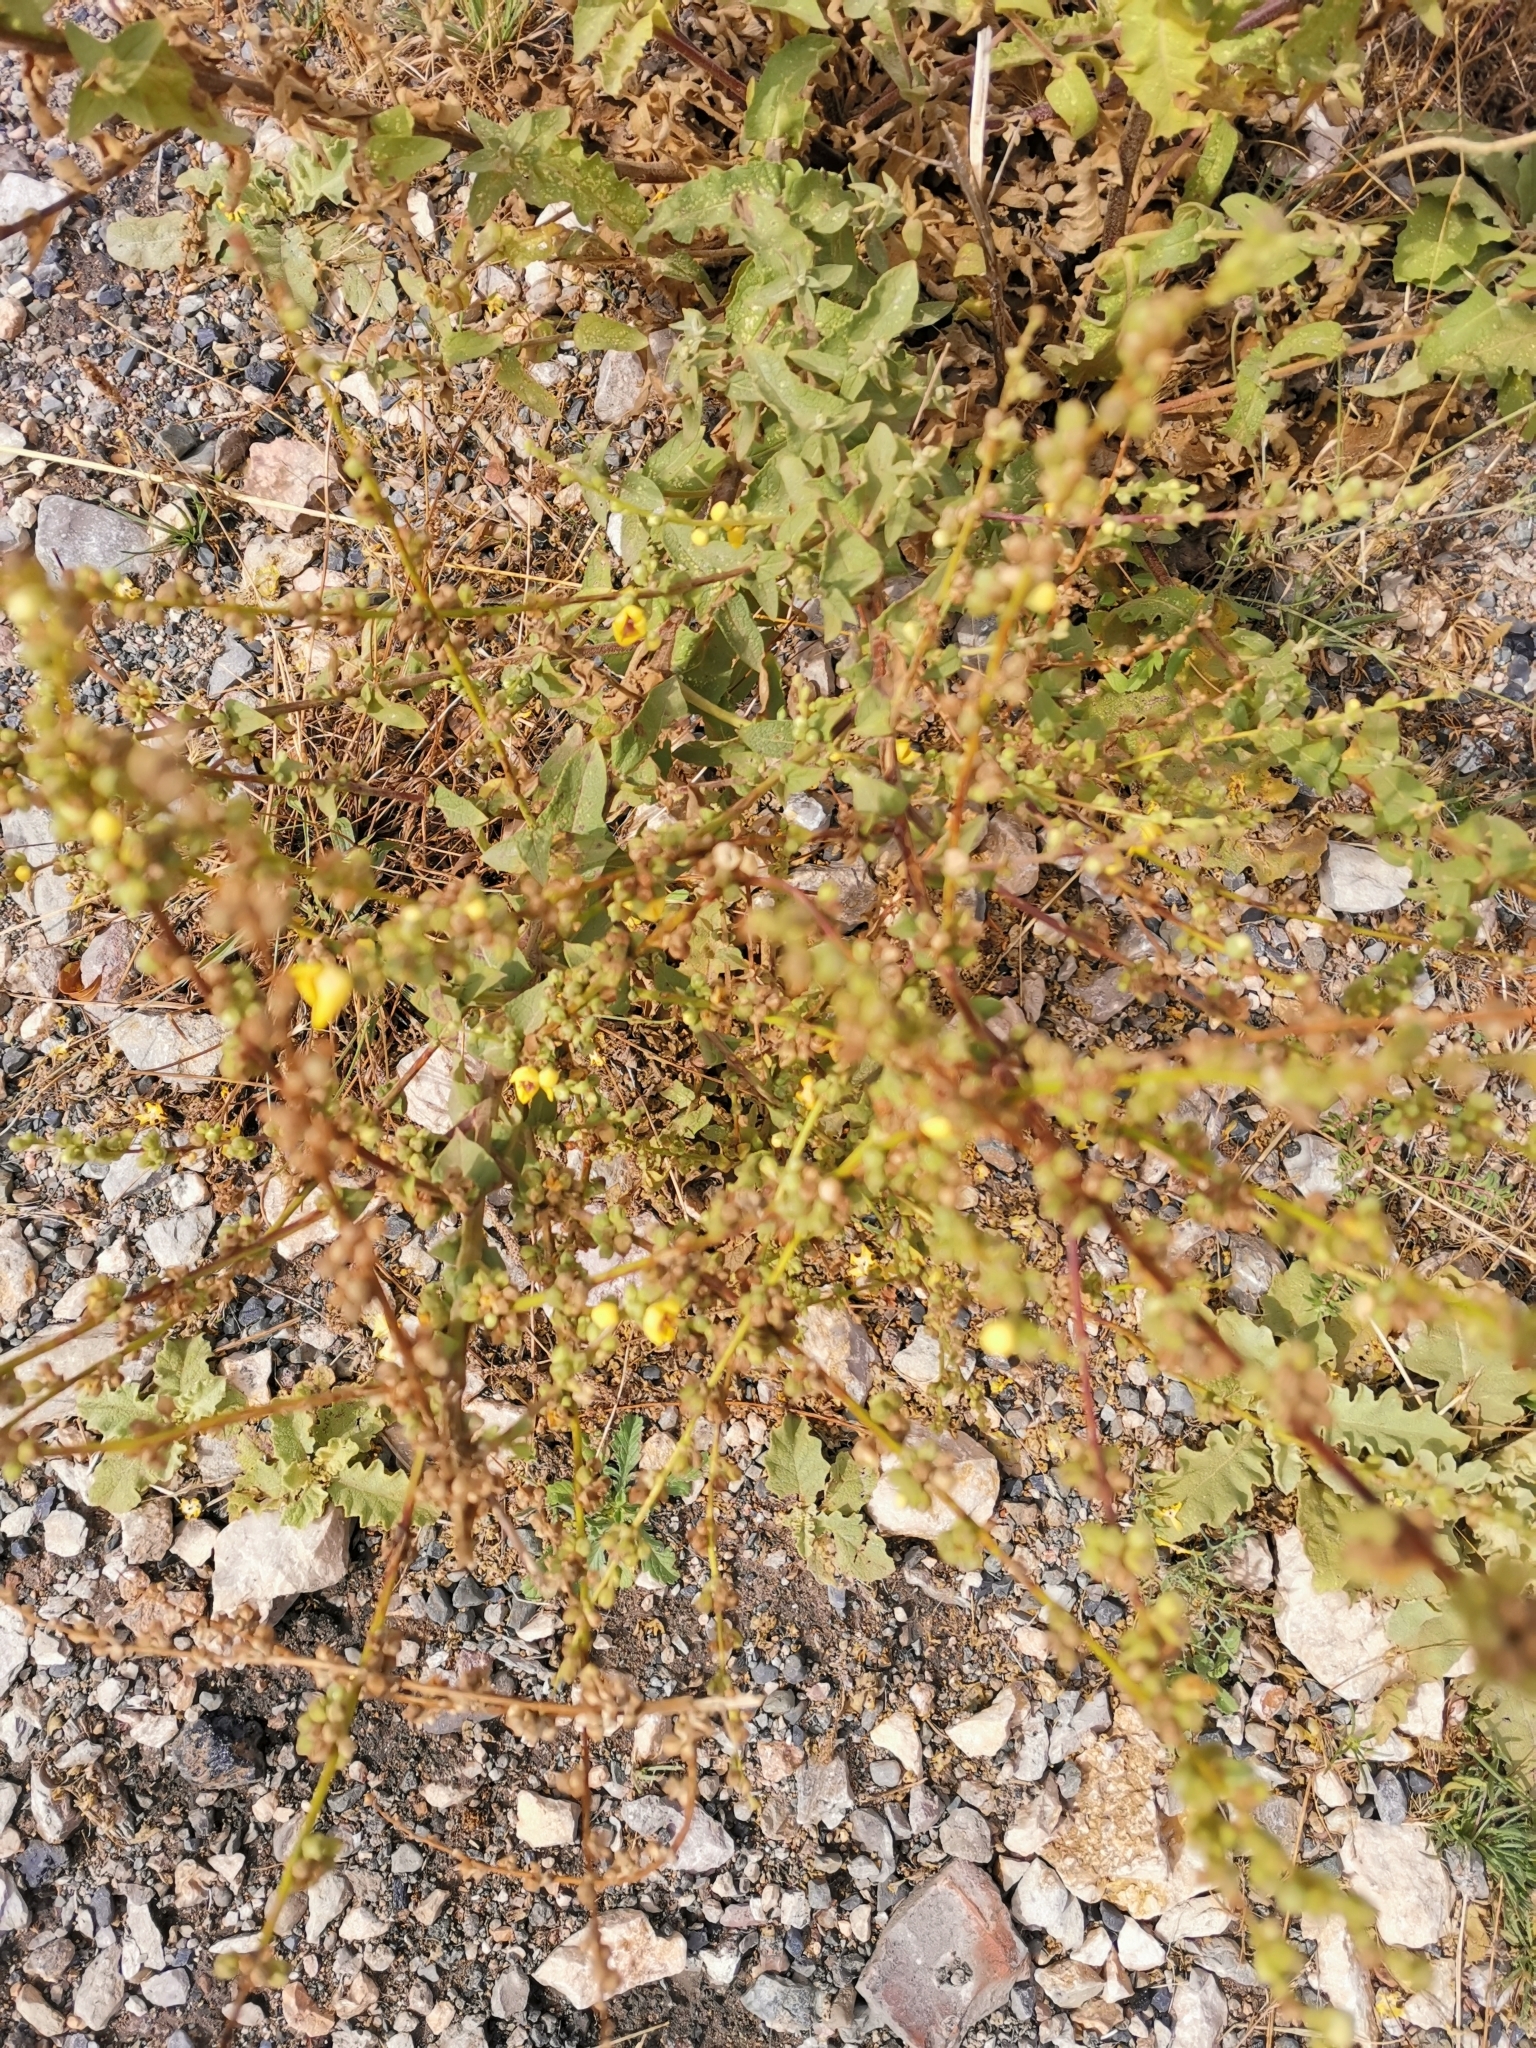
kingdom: Plantae
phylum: Tracheophyta
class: Magnoliopsida
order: Lamiales
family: Scrophulariaceae
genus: Verbascum
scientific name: Verbascum sinuatum
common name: Wavyleaf mullein
